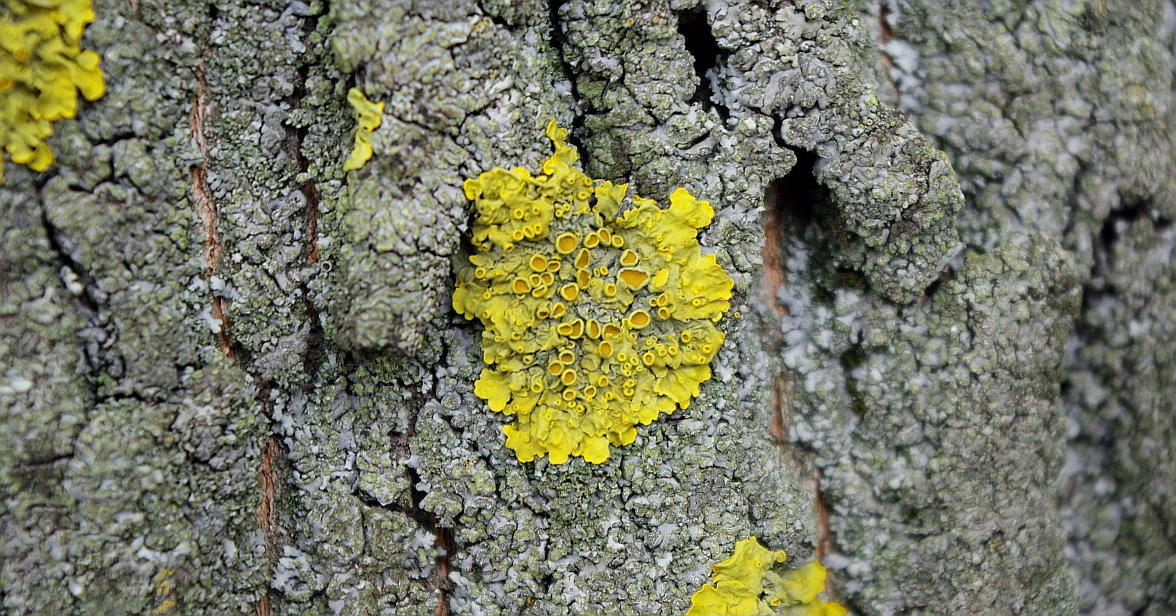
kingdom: Fungi
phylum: Ascomycota
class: Lecanoromycetes
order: Teloschistales
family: Teloschistaceae
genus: Xanthoria
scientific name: Xanthoria parietina
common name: Common orange lichen
